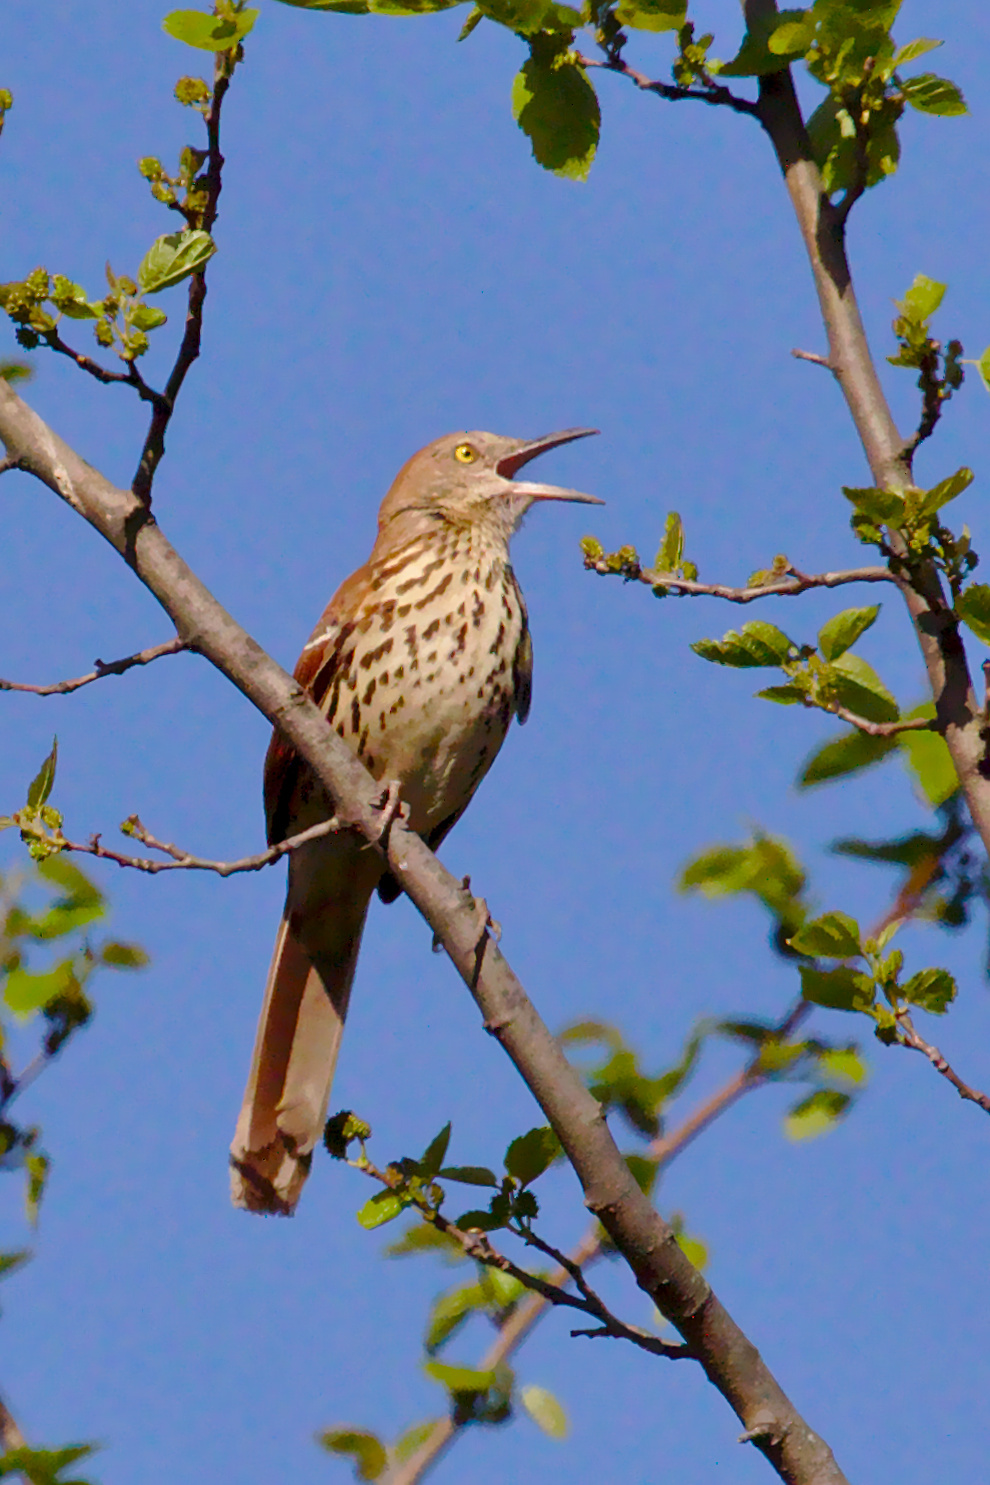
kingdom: Animalia
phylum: Chordata
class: Aves
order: Passeriformes
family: Mimidae
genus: Toxostoma
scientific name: Toxostoma rufum
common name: Brown thrasher
